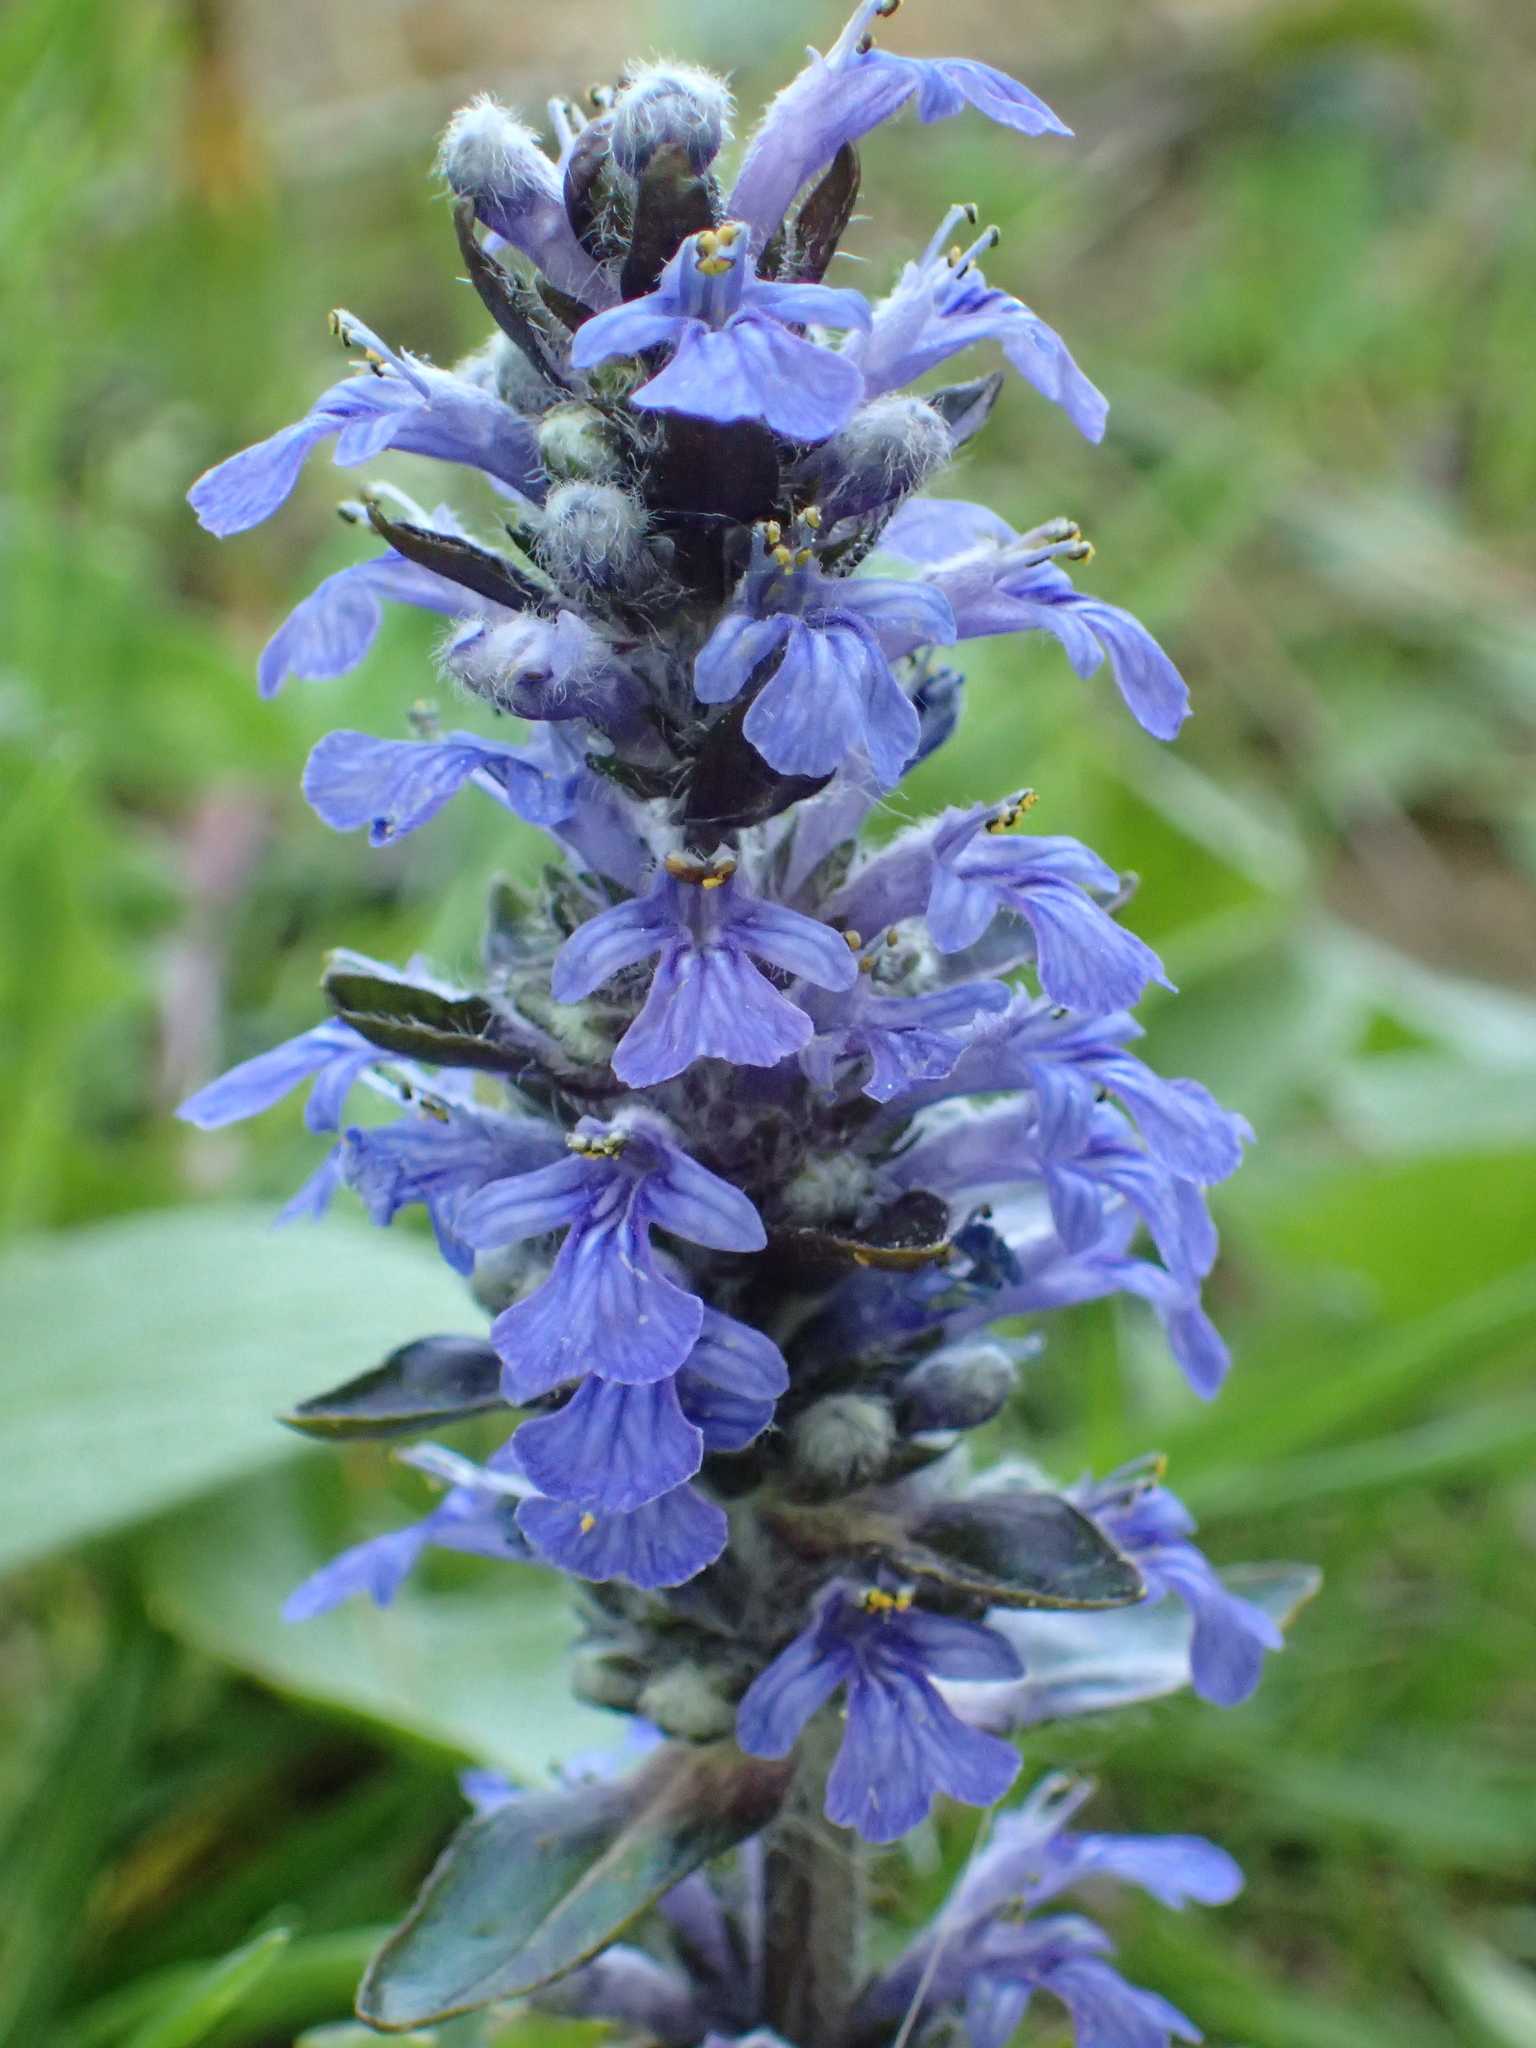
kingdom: Plantae
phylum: Tracheophyta
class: Magnoliopsida
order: Lamiales
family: Lamiaceae
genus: Ajuga
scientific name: Ajuga reptans
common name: Bugle
